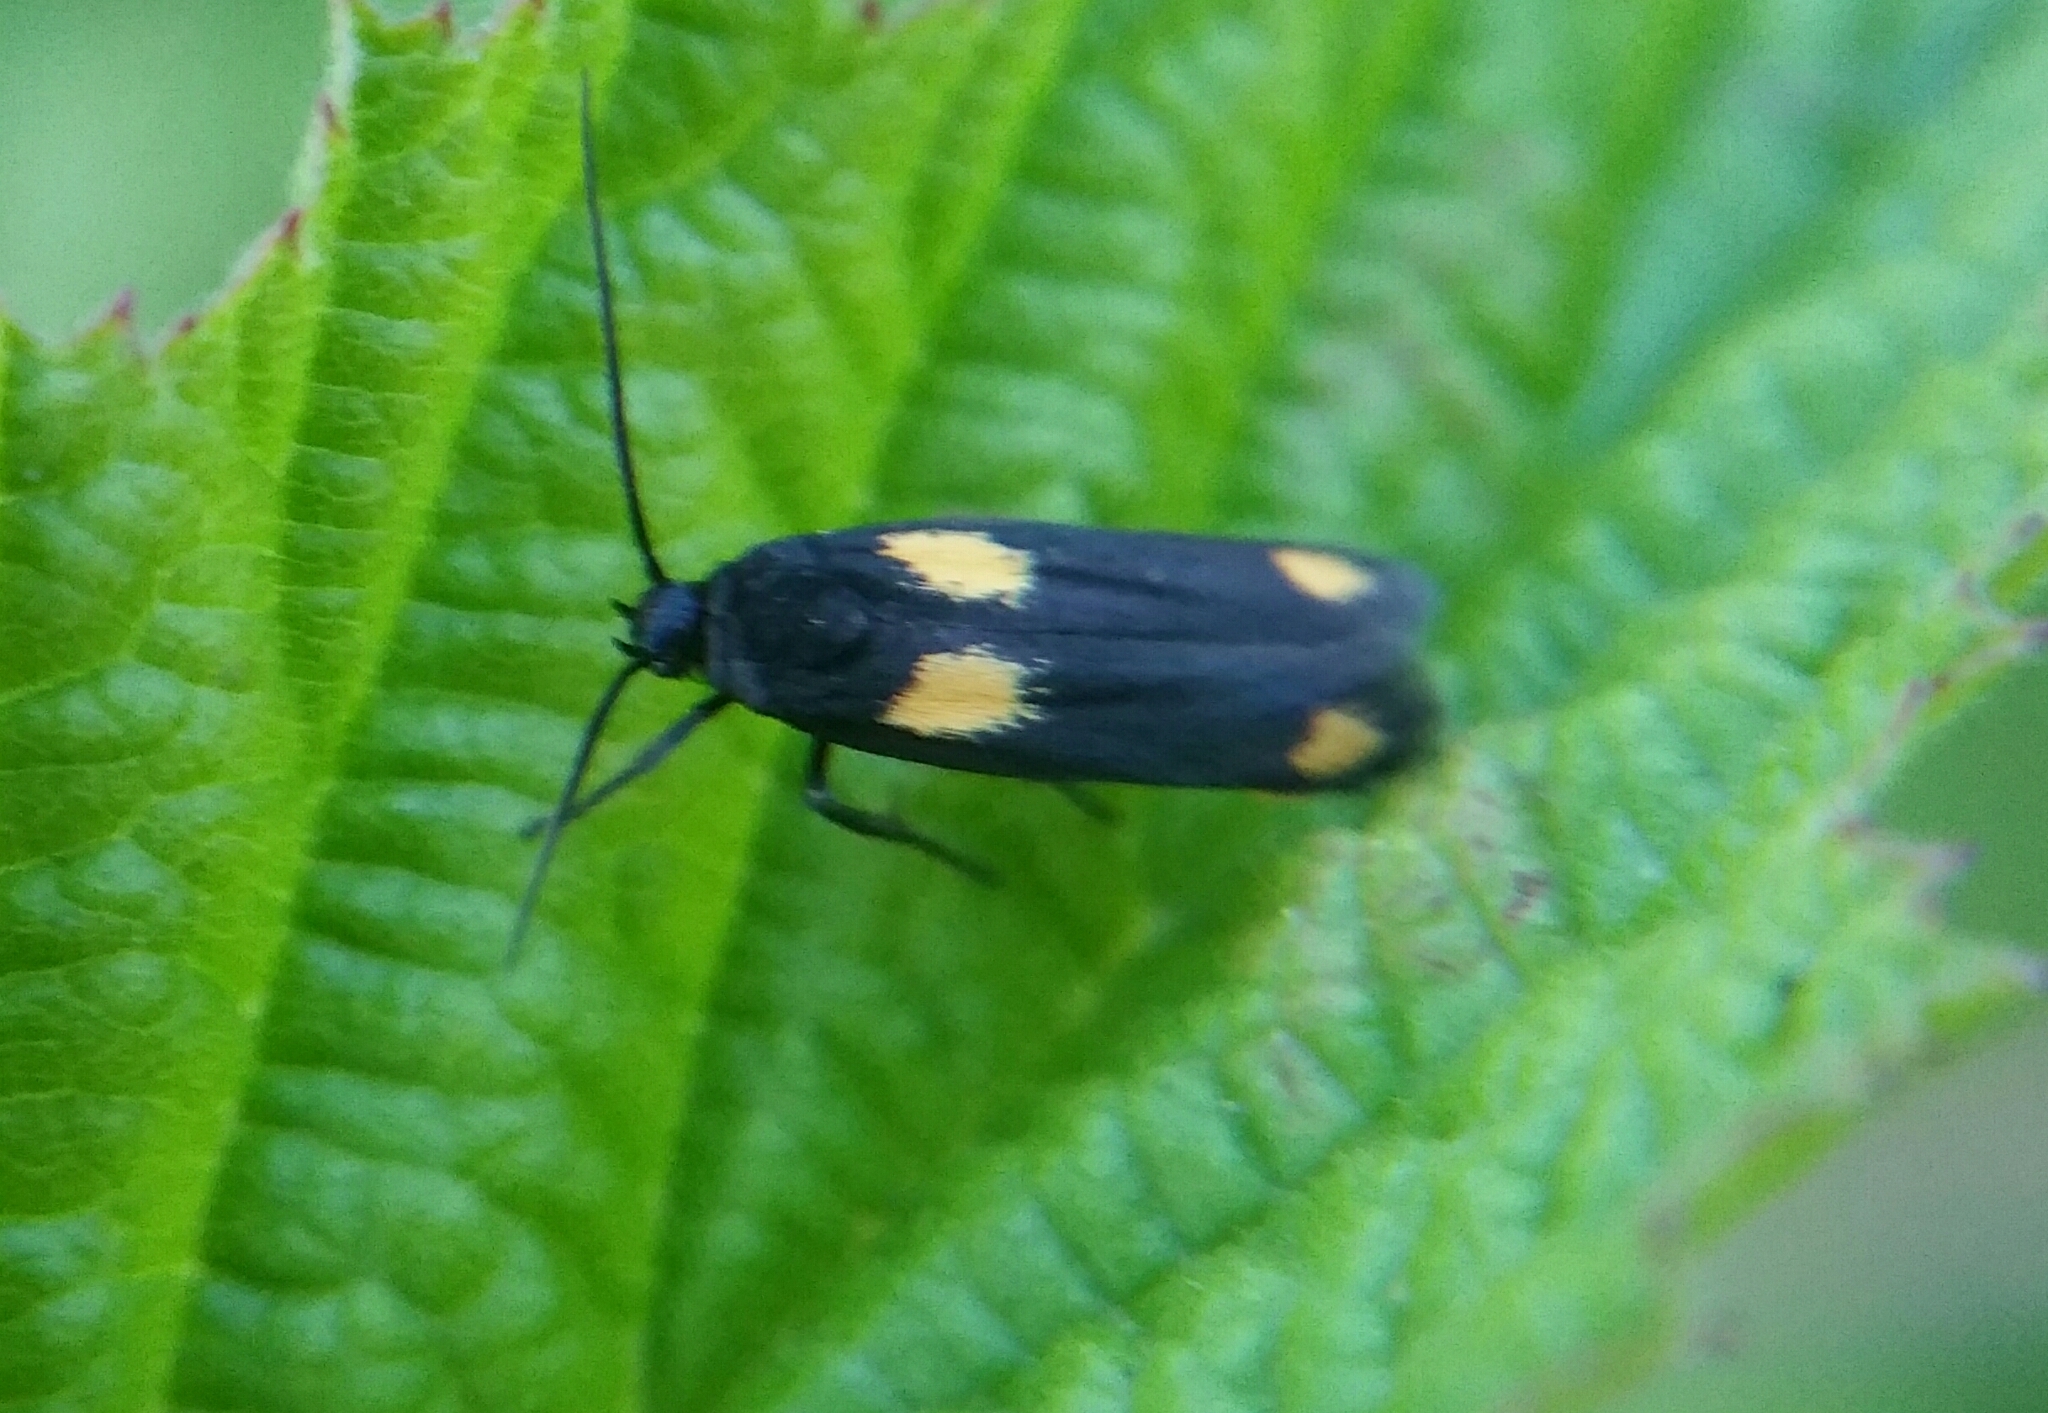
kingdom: Animalia
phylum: Arthropoda
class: Insecta
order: Lepidoptera
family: Scythrididae
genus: Scythris
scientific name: Scythris sinensis
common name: Kentish owlet
